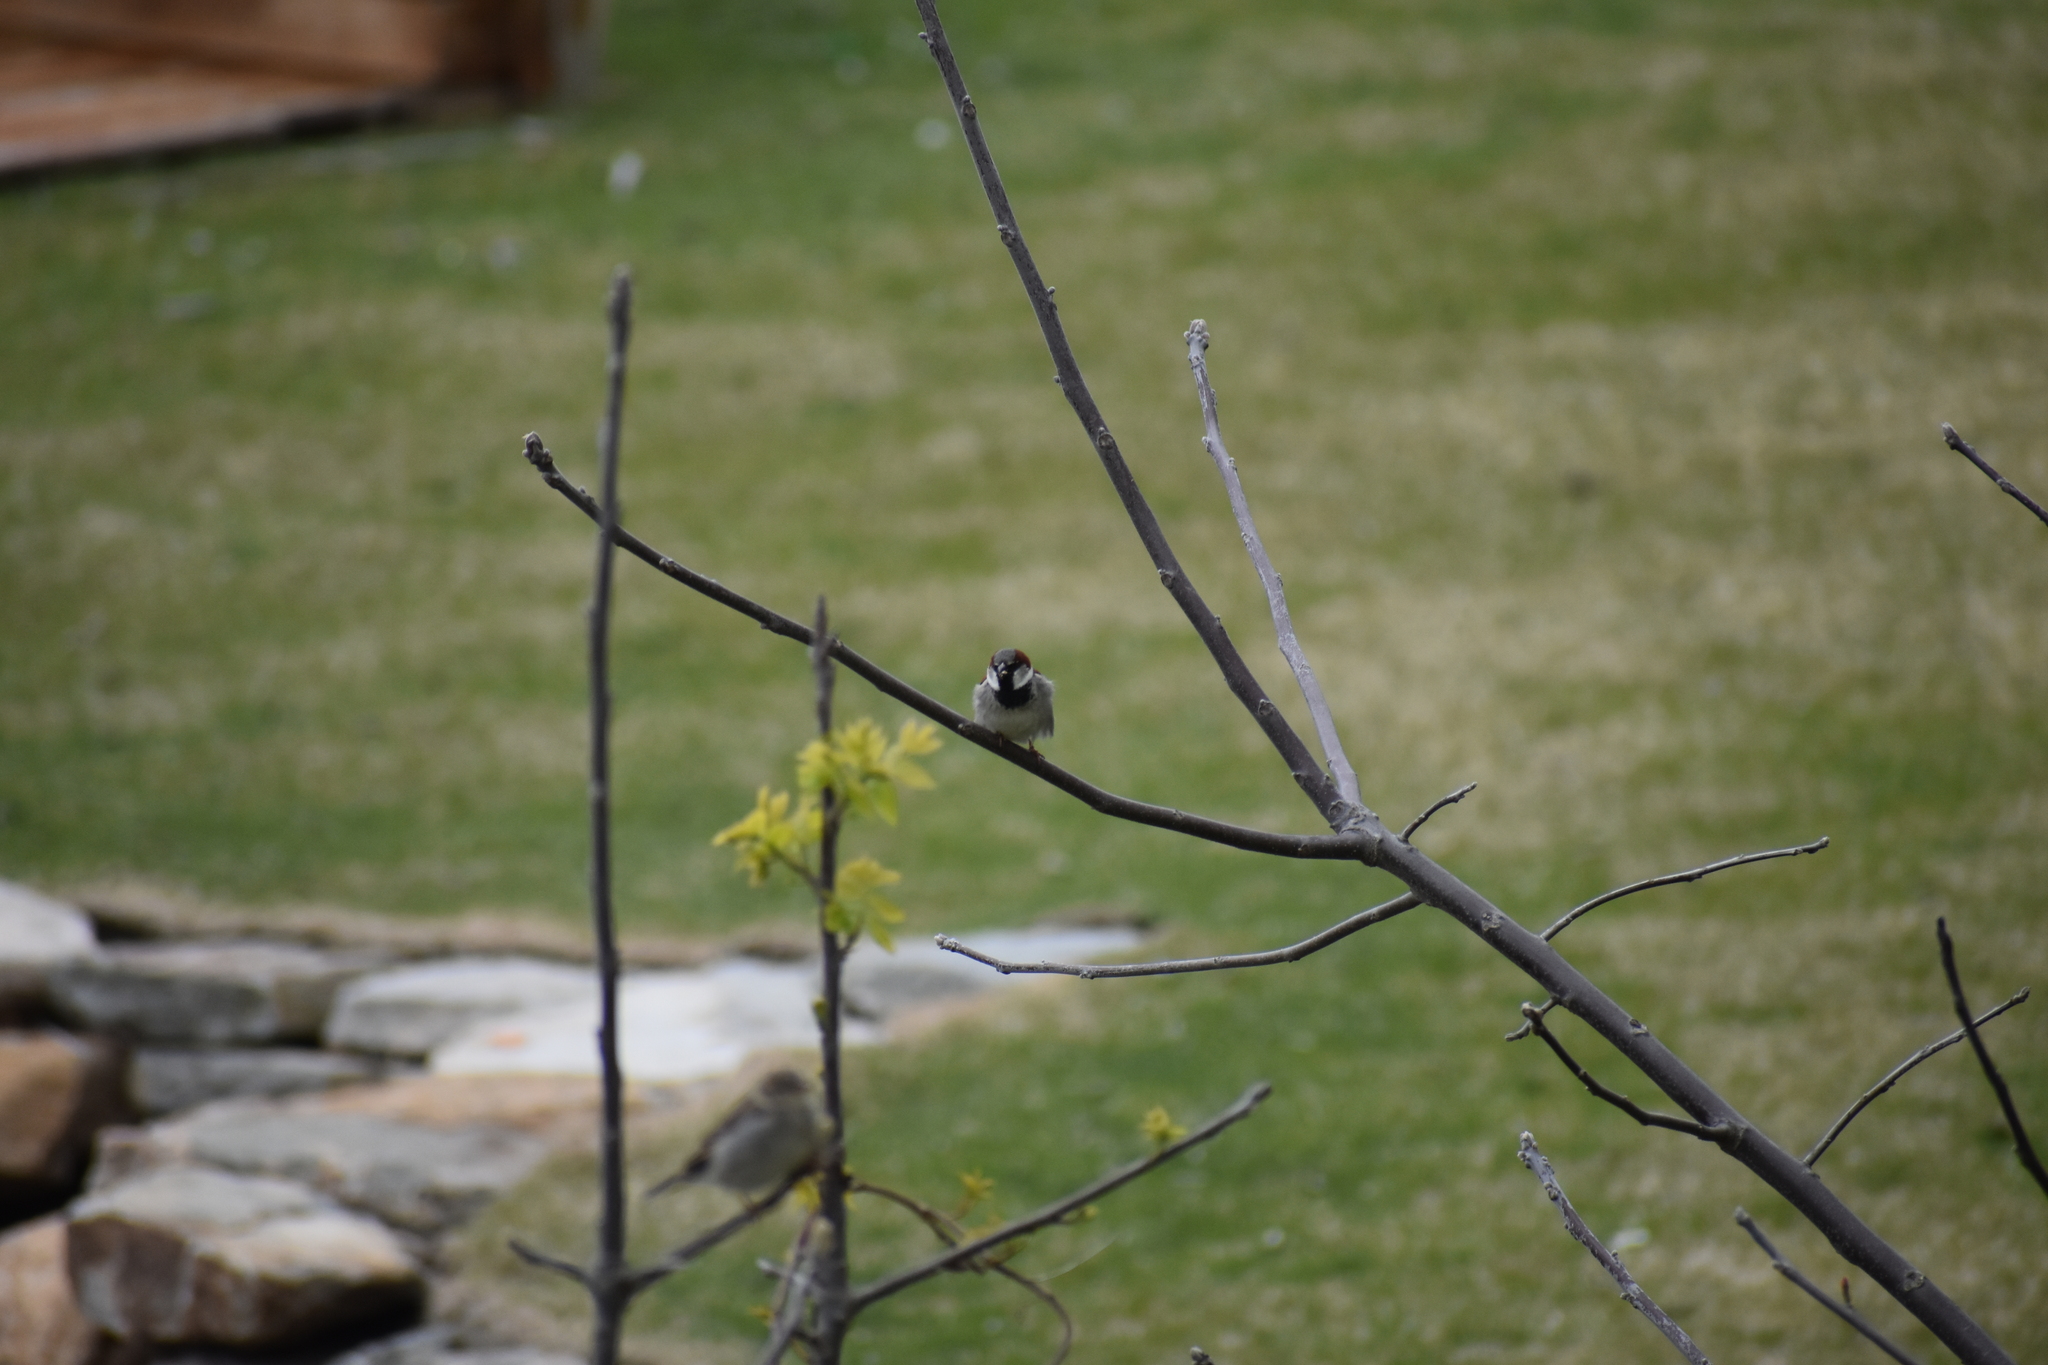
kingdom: Animalia
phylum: Chordata
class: Aves
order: Passeriformes
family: Passeridae
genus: Passer
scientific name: Passer domesticus
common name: House sparrow
